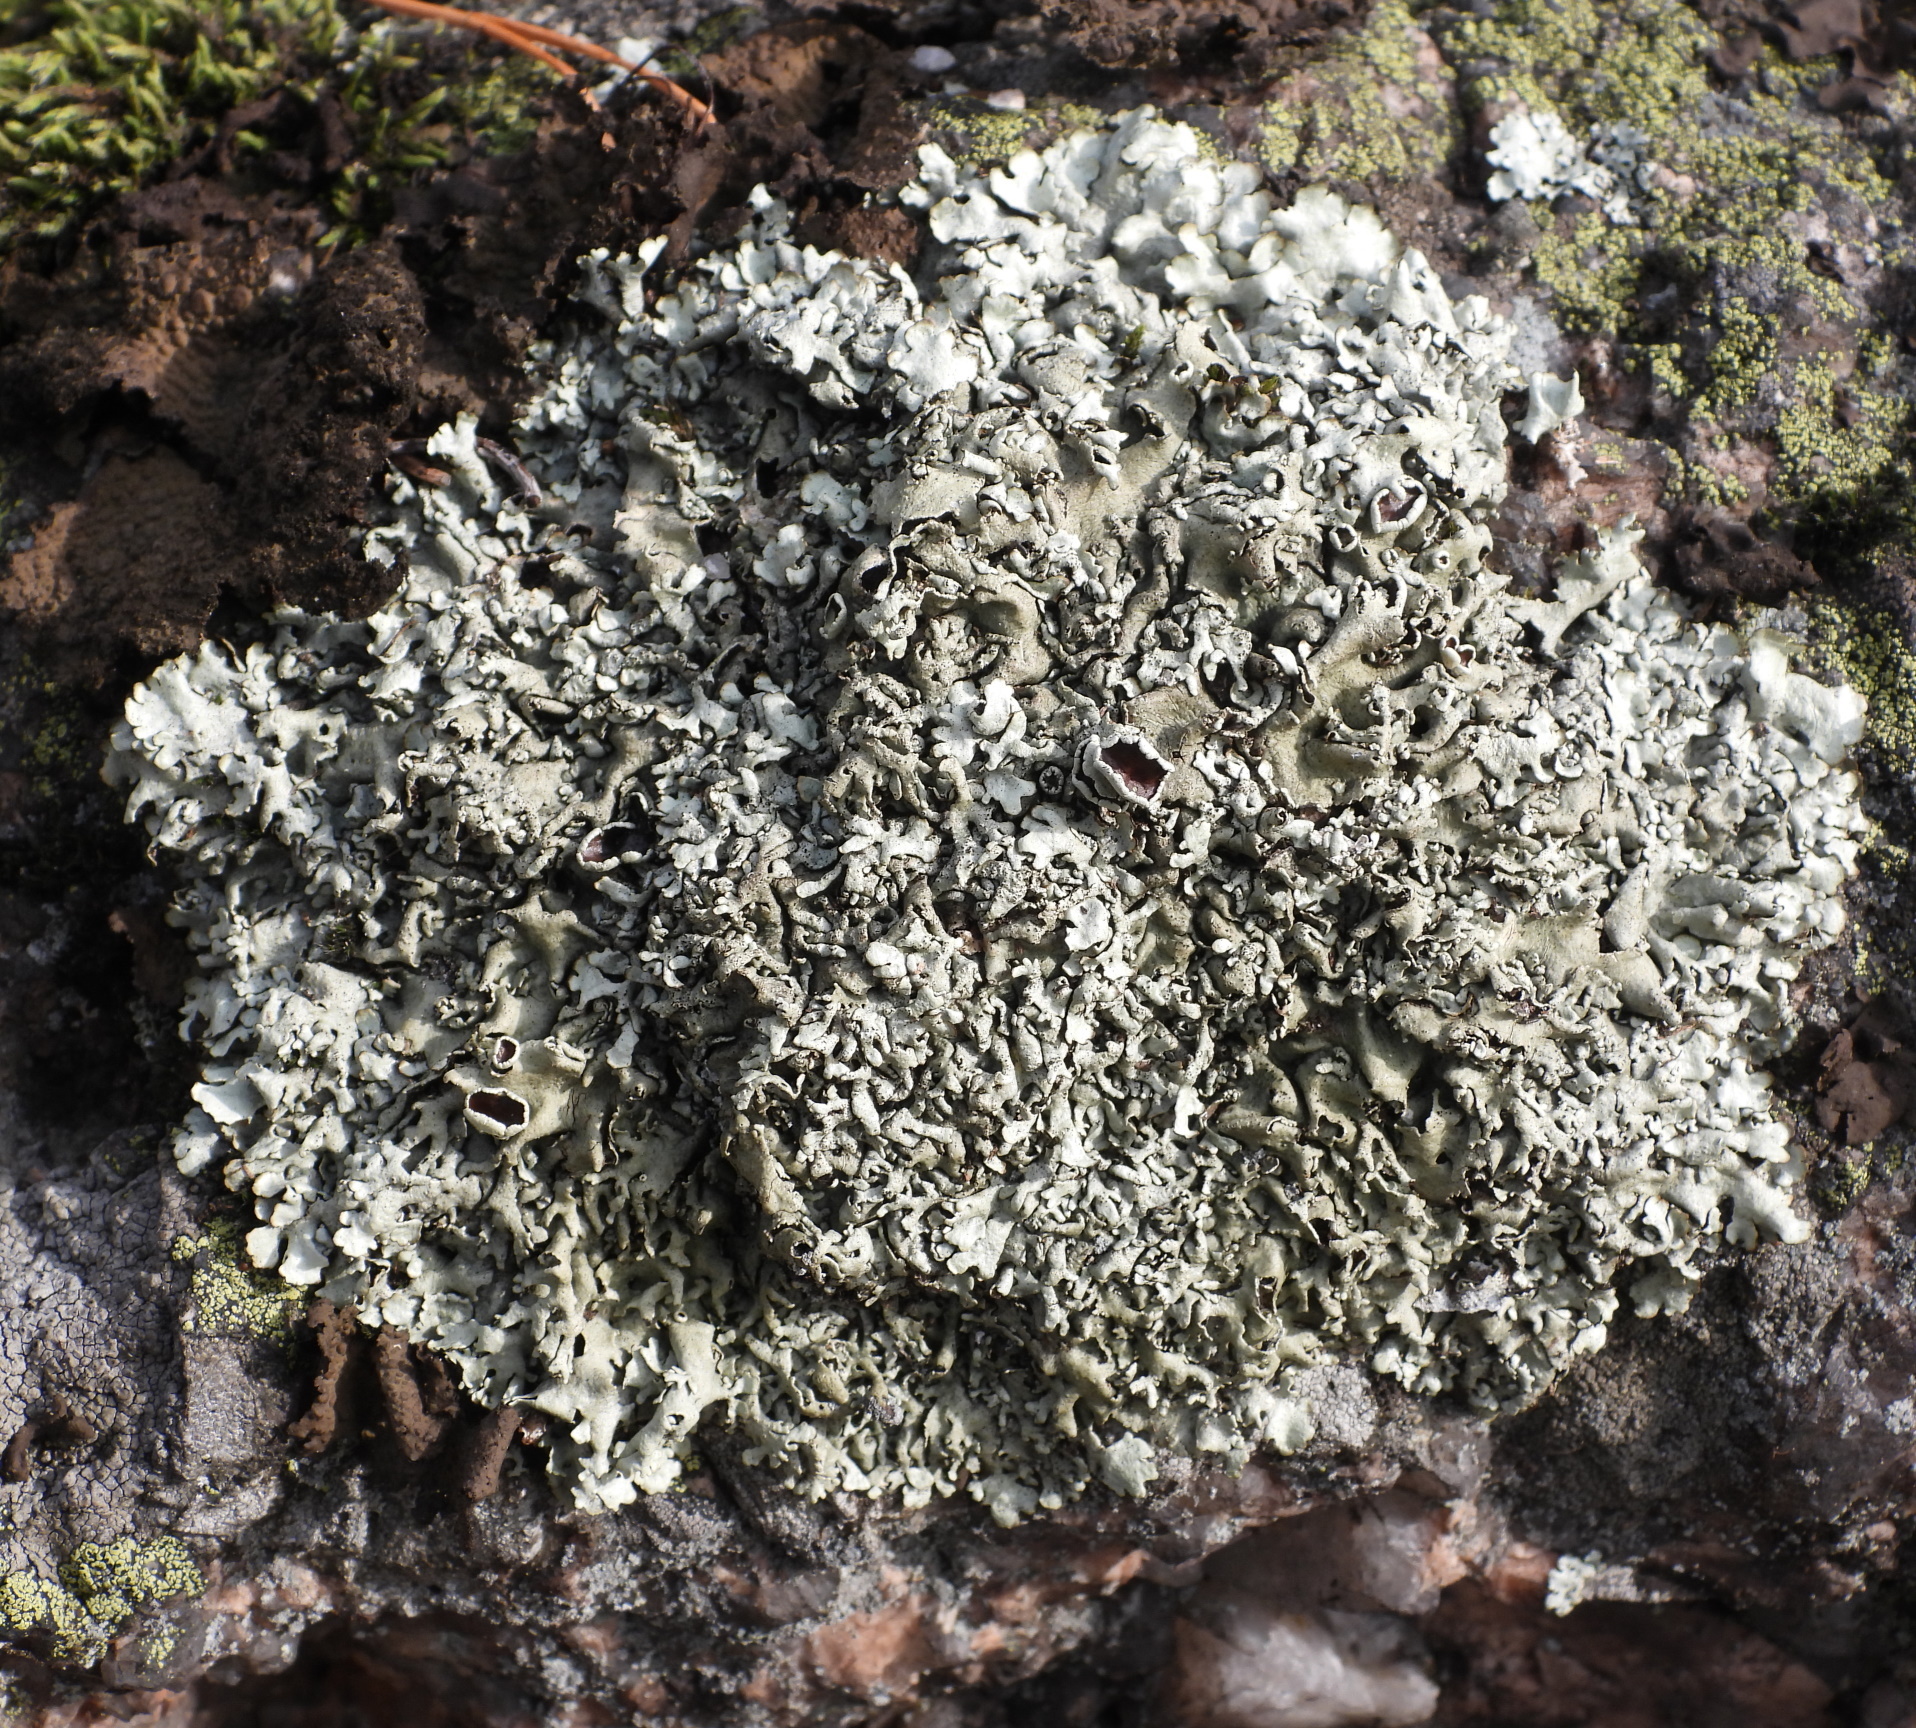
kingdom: Fungi
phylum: Ascomycota
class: Lecanoromycetes
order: Lecanorales
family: Parmeliaceae
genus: Xanthoparmelia
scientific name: Xanthoparmelia stenophylla
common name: Shingled rock shield
